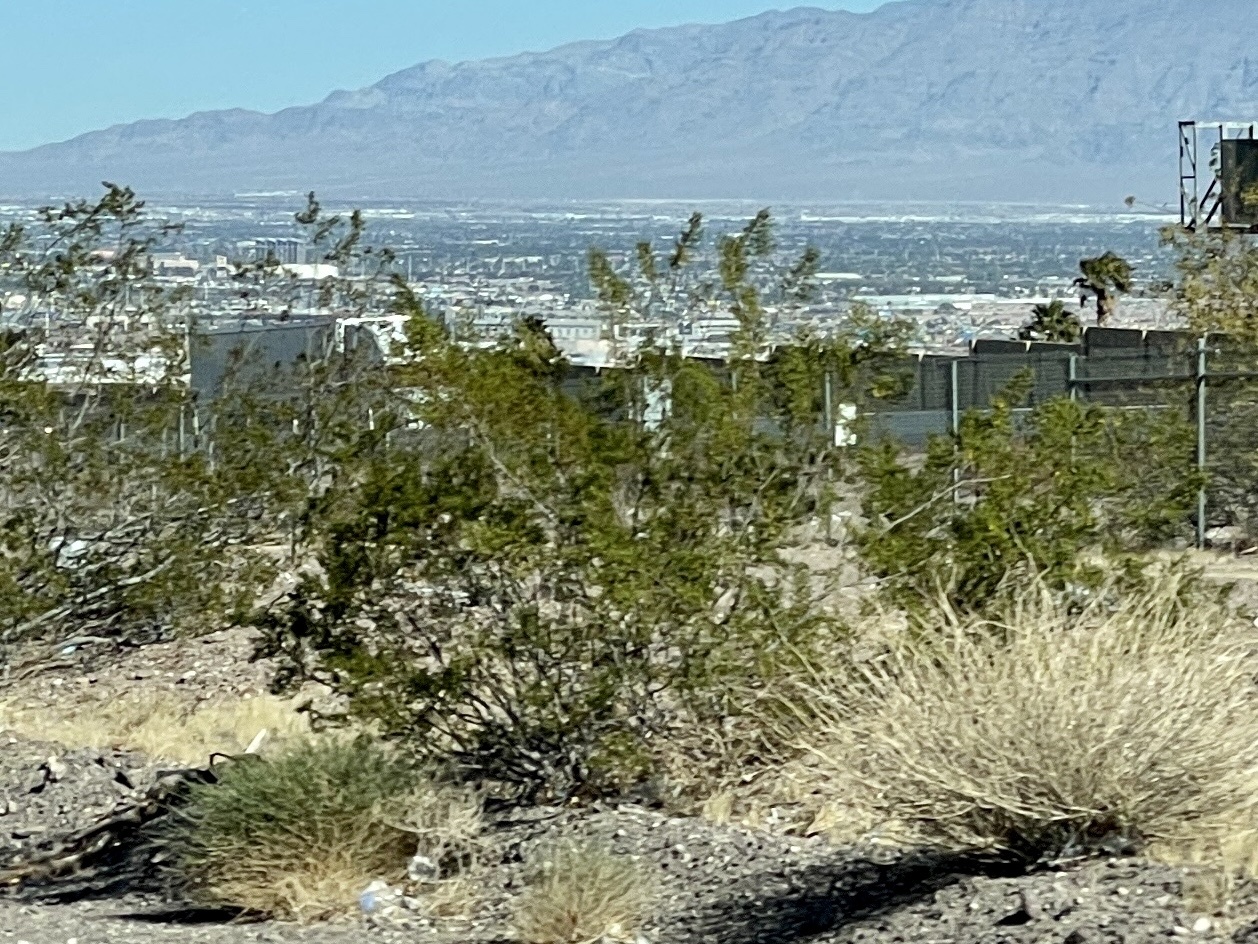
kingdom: Plantae
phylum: Tracheophyta
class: Magnoliopsida
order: Zygophyllales
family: Zygophyllaceae
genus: Larrea
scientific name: Larrea tridentata
